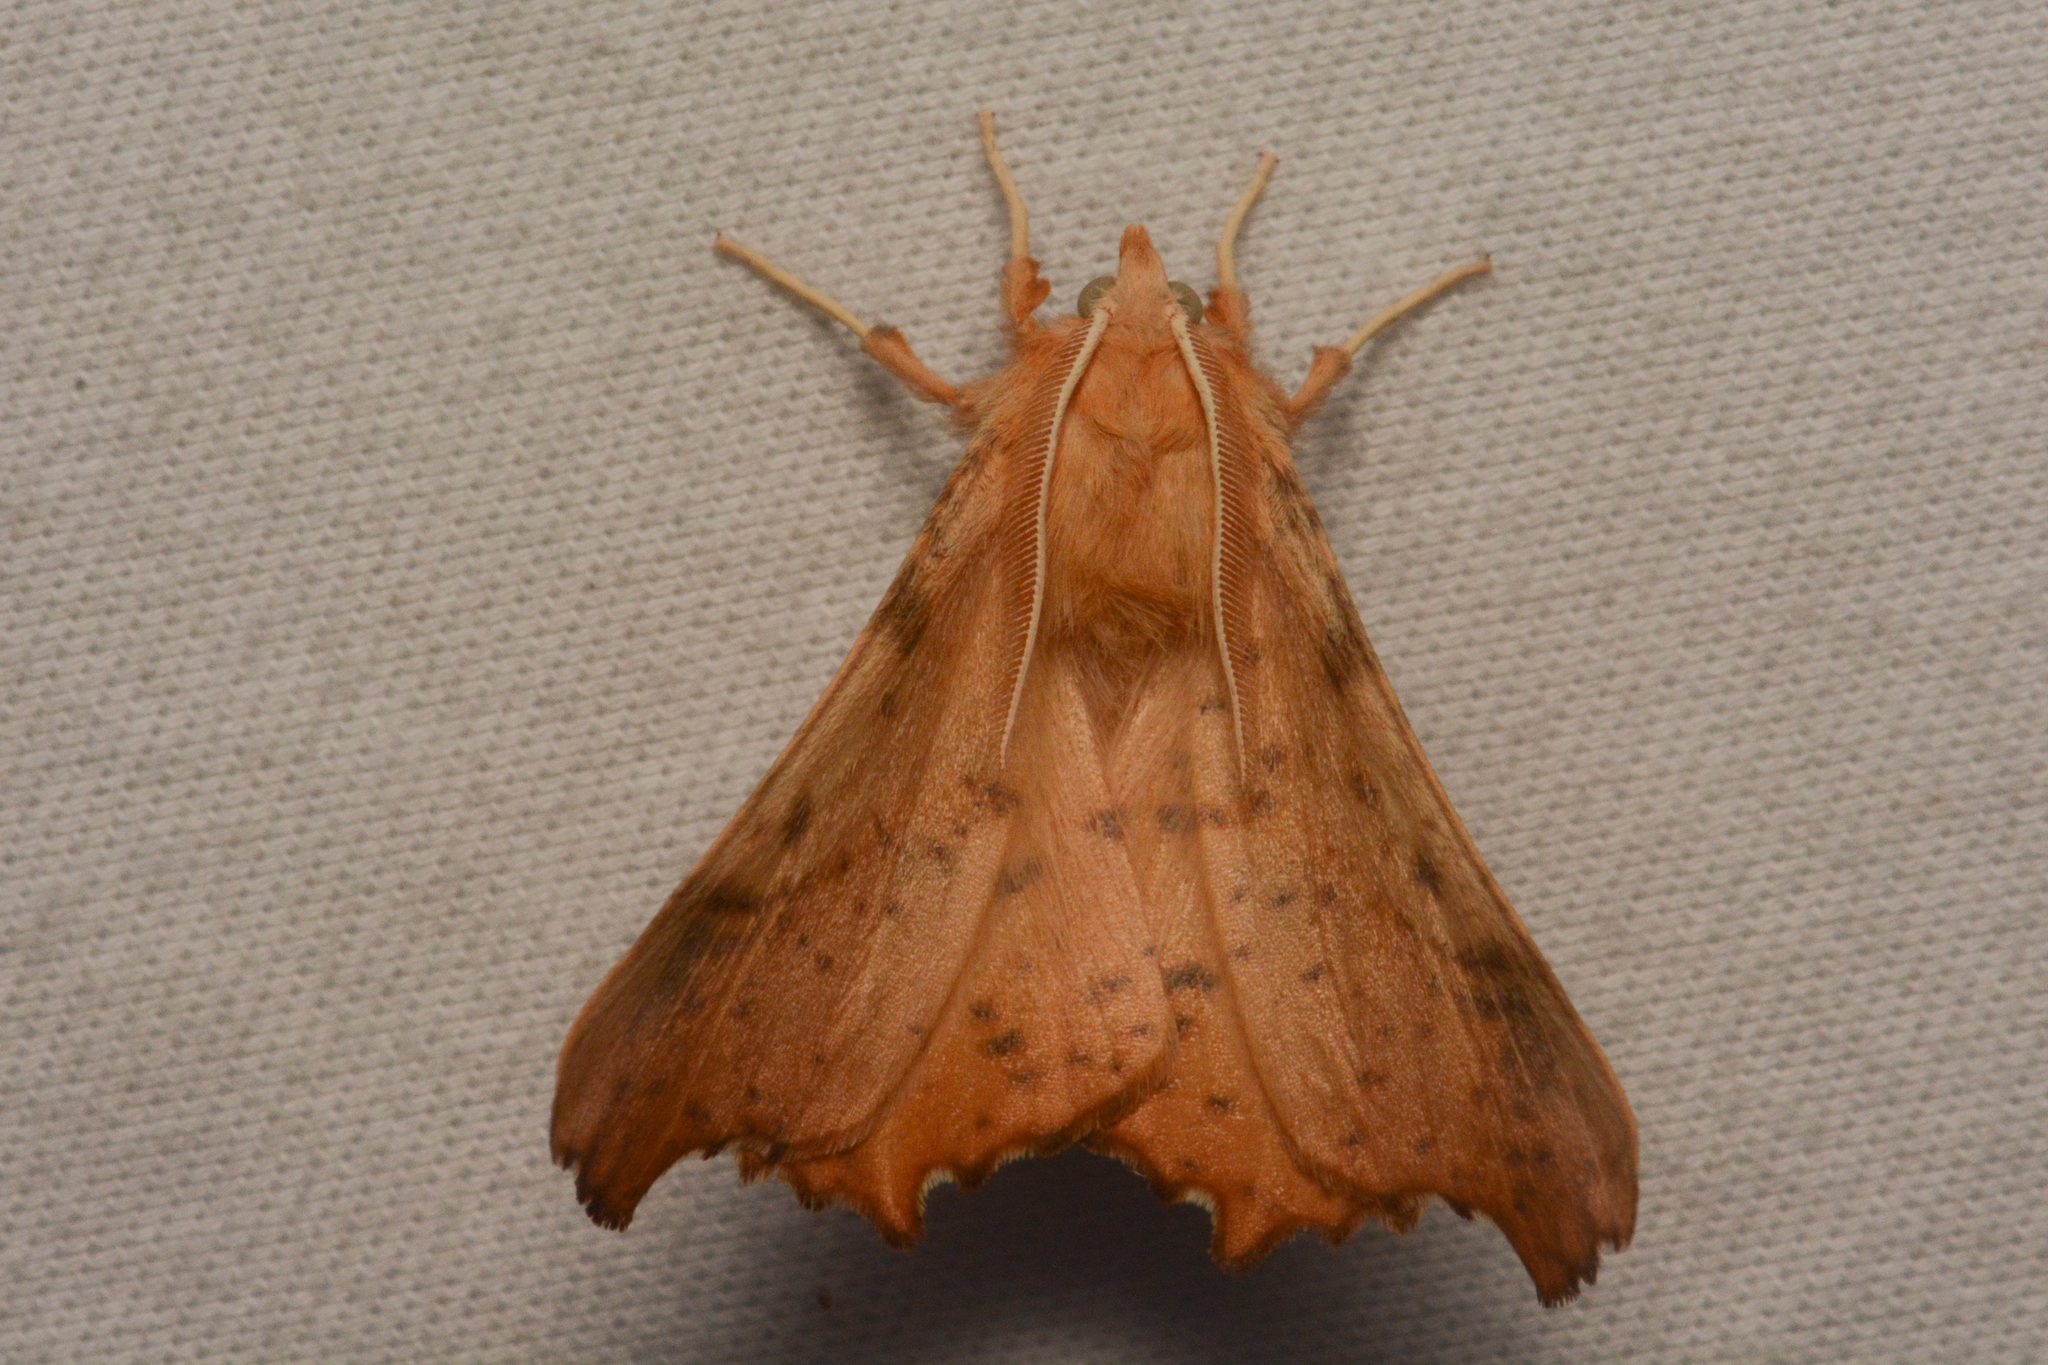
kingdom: Animalia
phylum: Arthropoda
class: Insecta
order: Lepidoptera
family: Geometridae
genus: Ennomos
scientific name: Ennomos magnaria
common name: Maple spanworm
